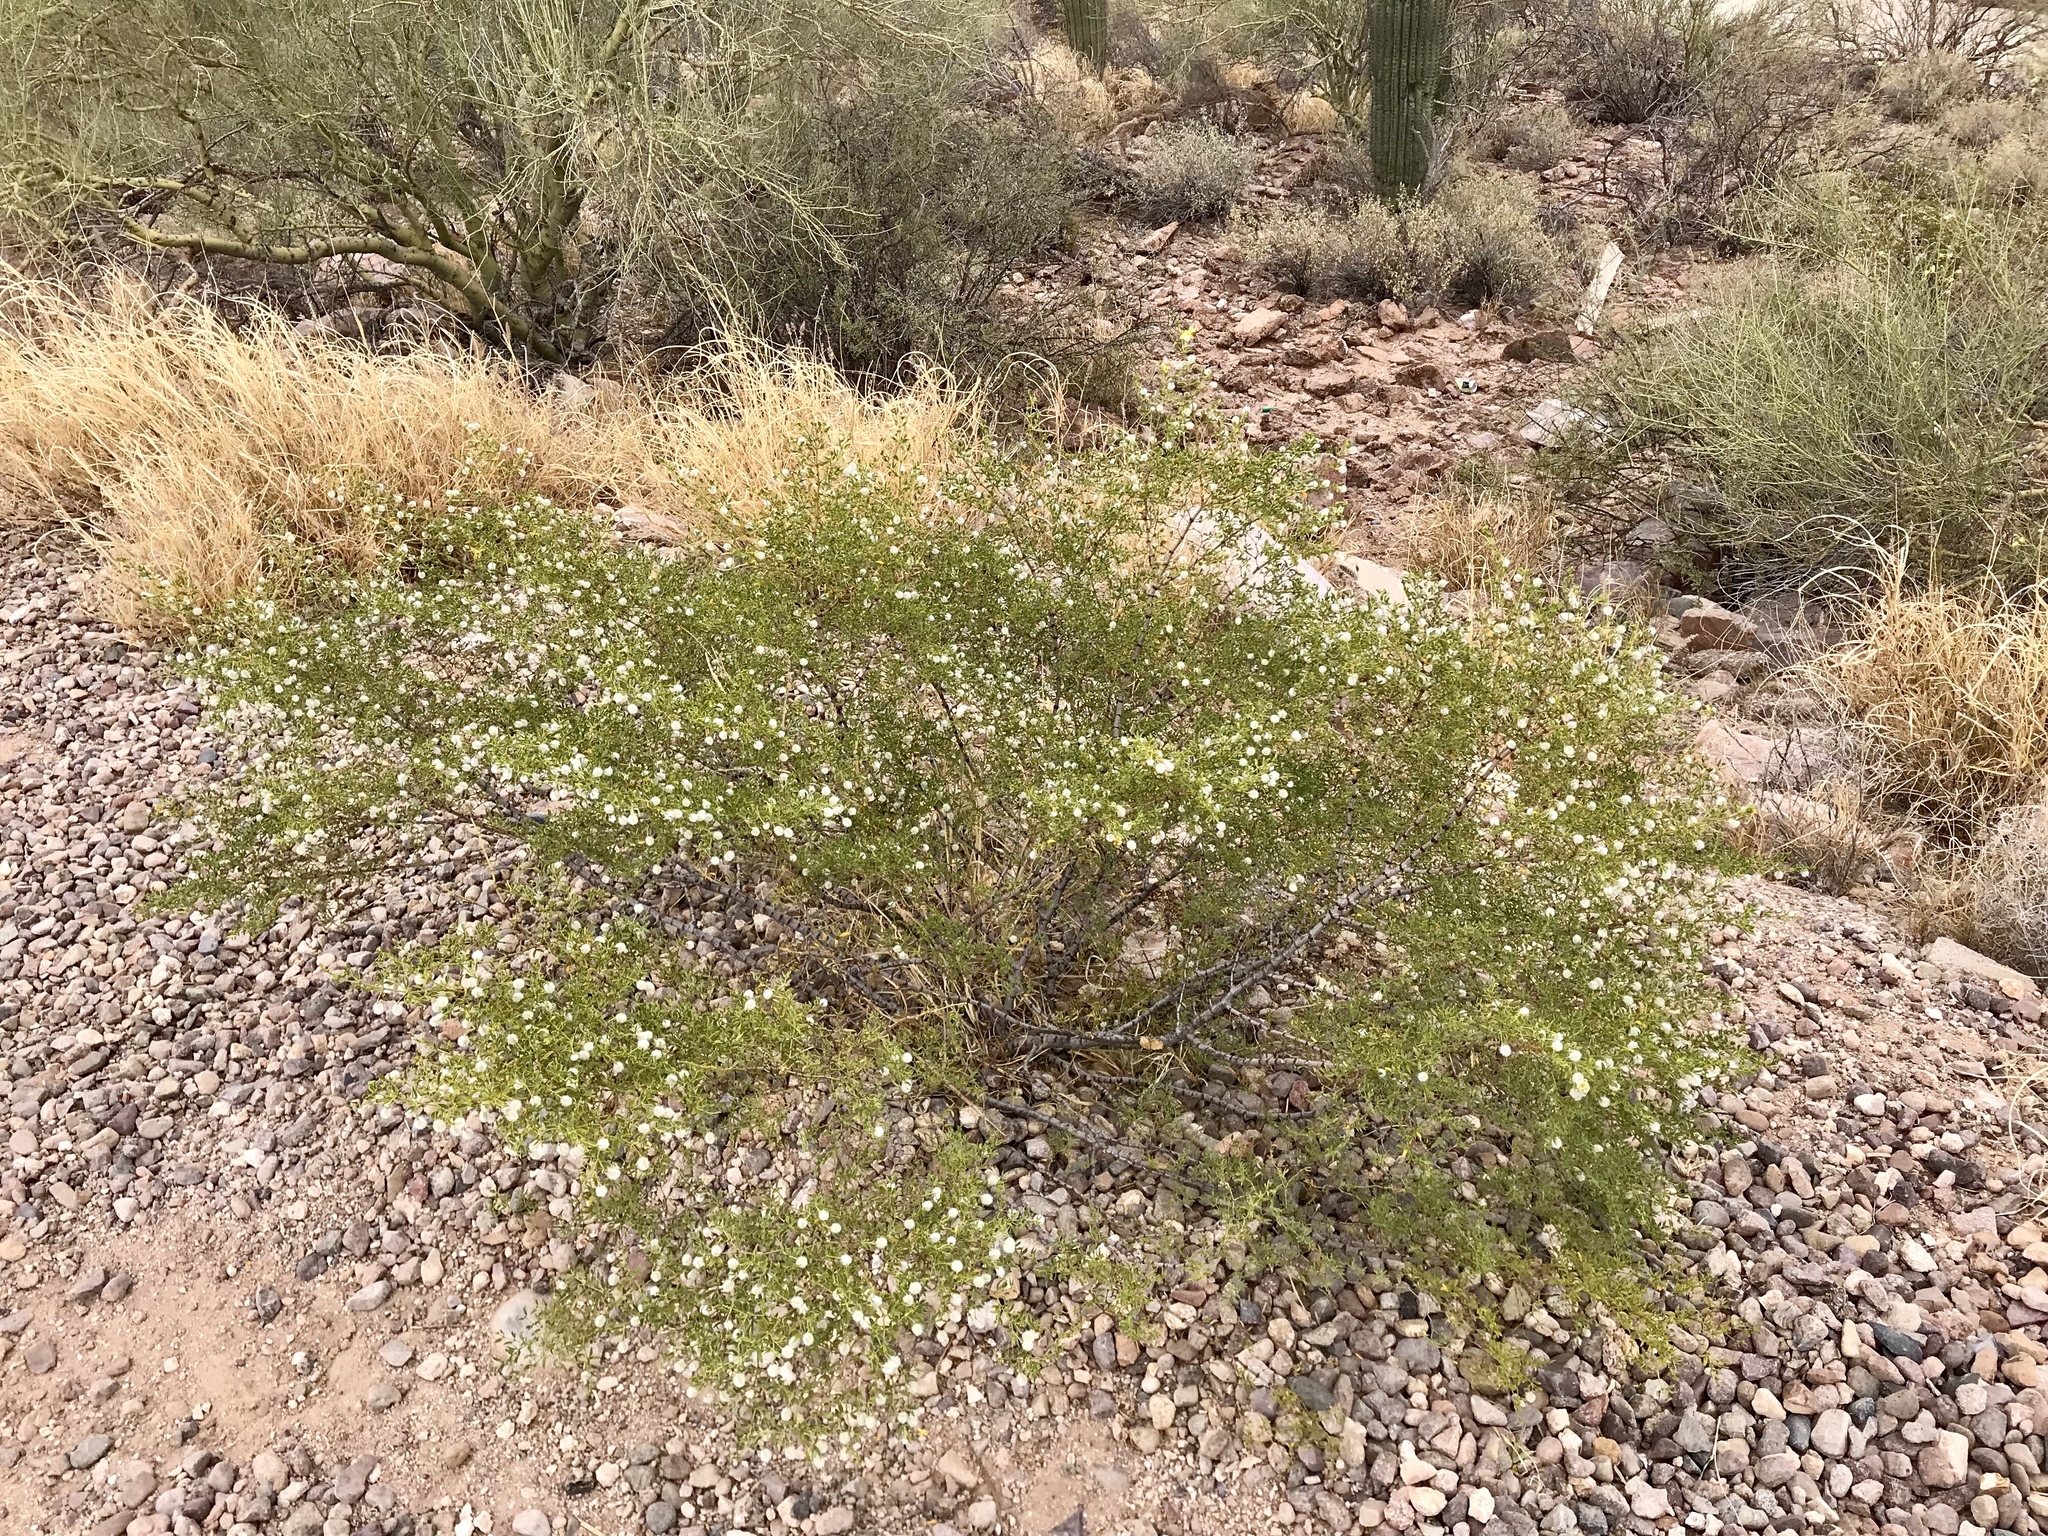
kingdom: Plantae
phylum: Tracheophyta
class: Magnoliopsida
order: Zygophyllales
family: Zygophyllaceae
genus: Larrea
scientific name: Larrea tridentata
